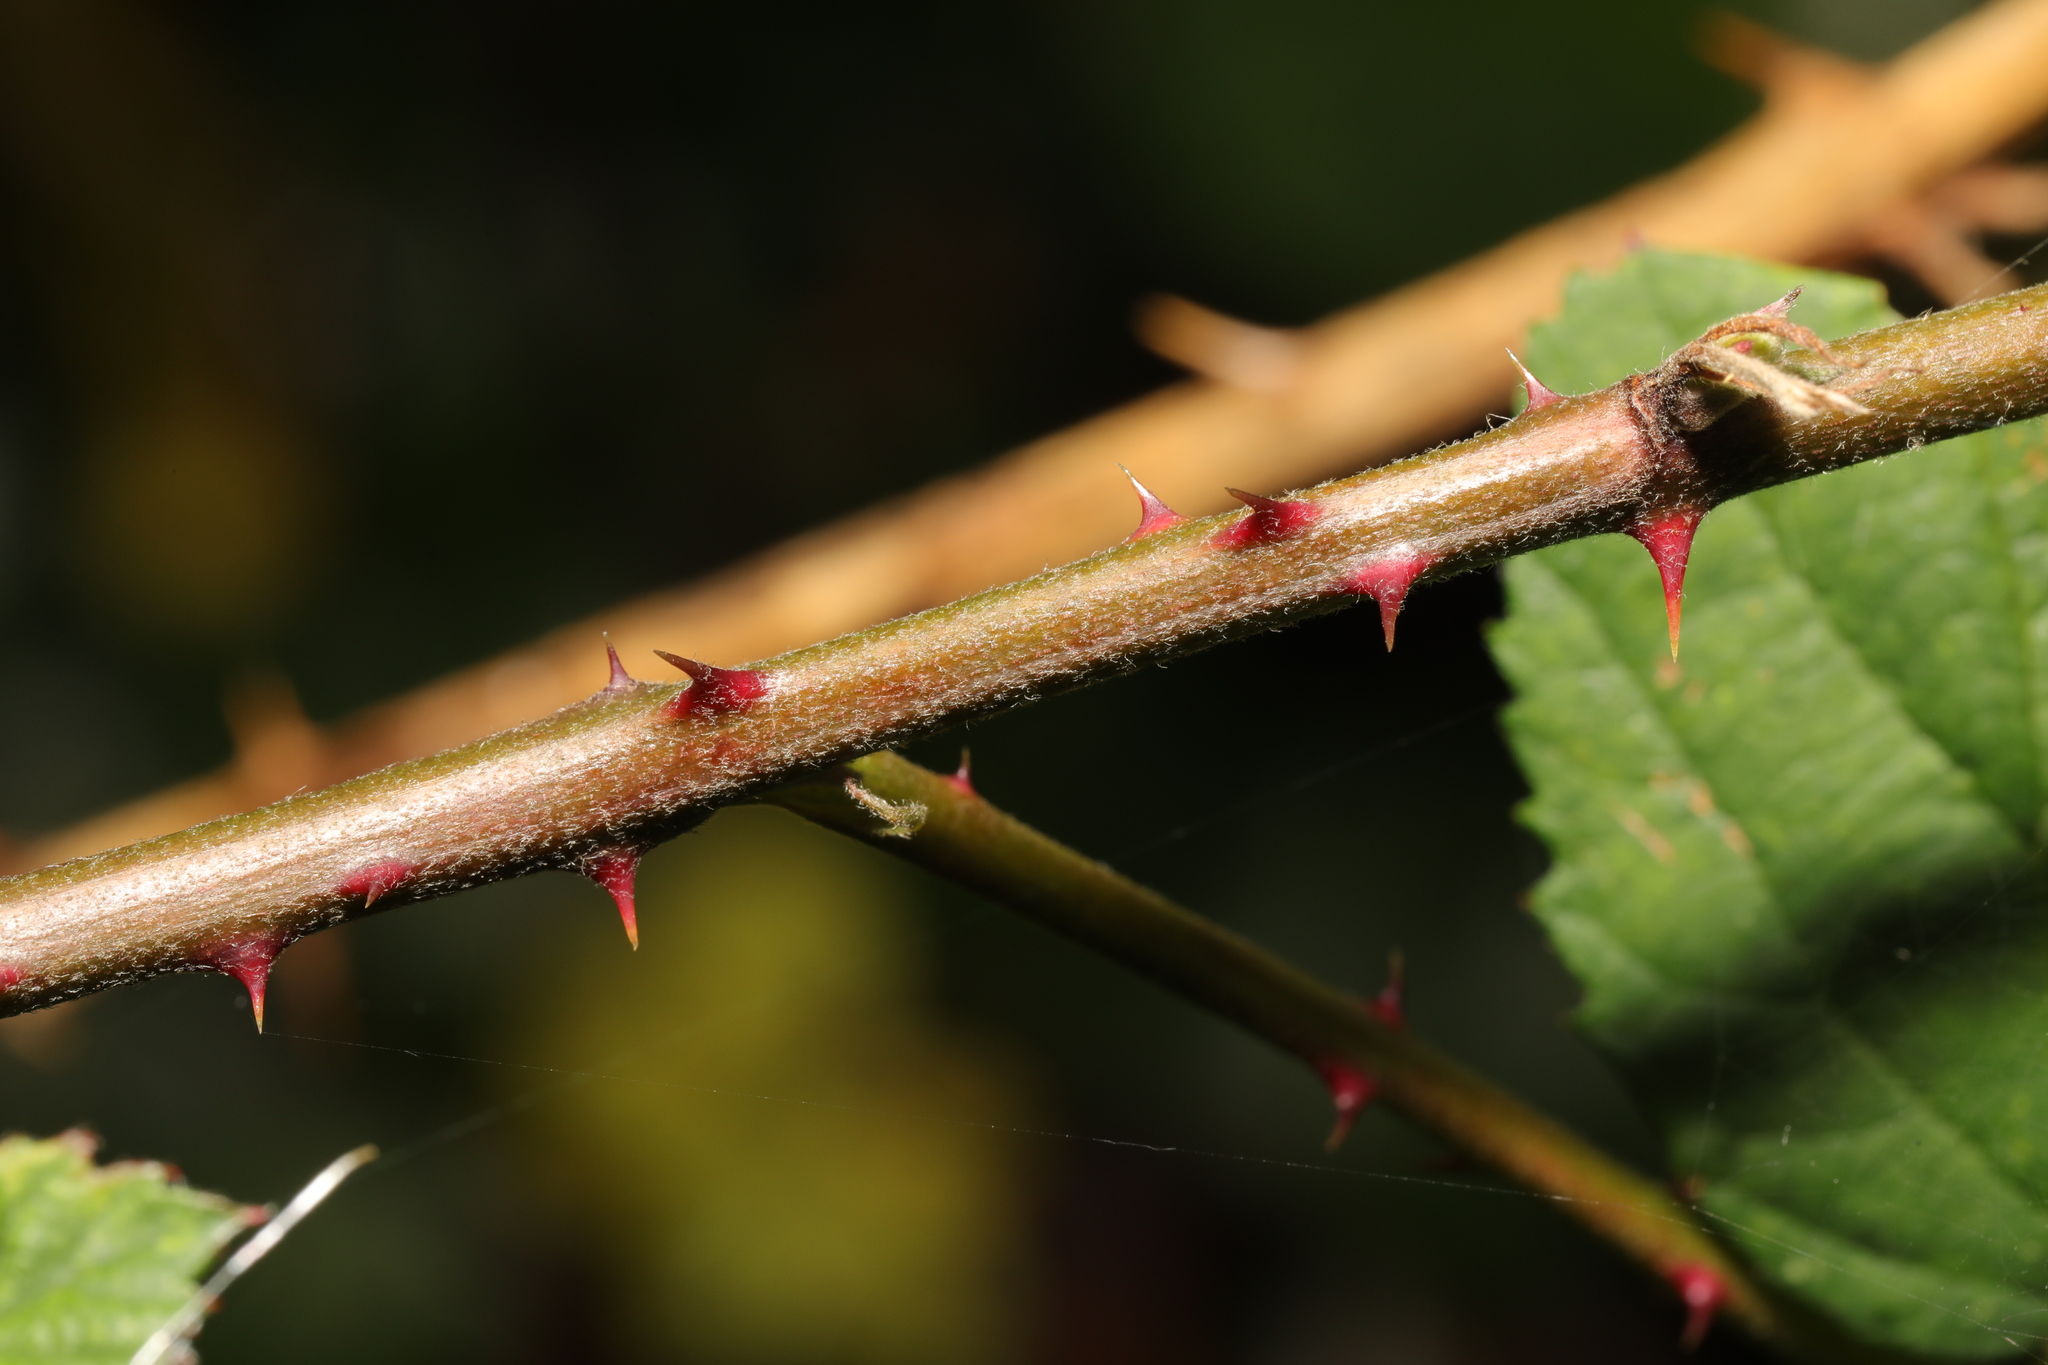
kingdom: Plantae
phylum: Tracheophyta
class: Magnoliopsida
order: Rosales
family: Rosaceae
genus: Rubus
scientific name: Rubus armeniacus
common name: Himalayan blackberry
